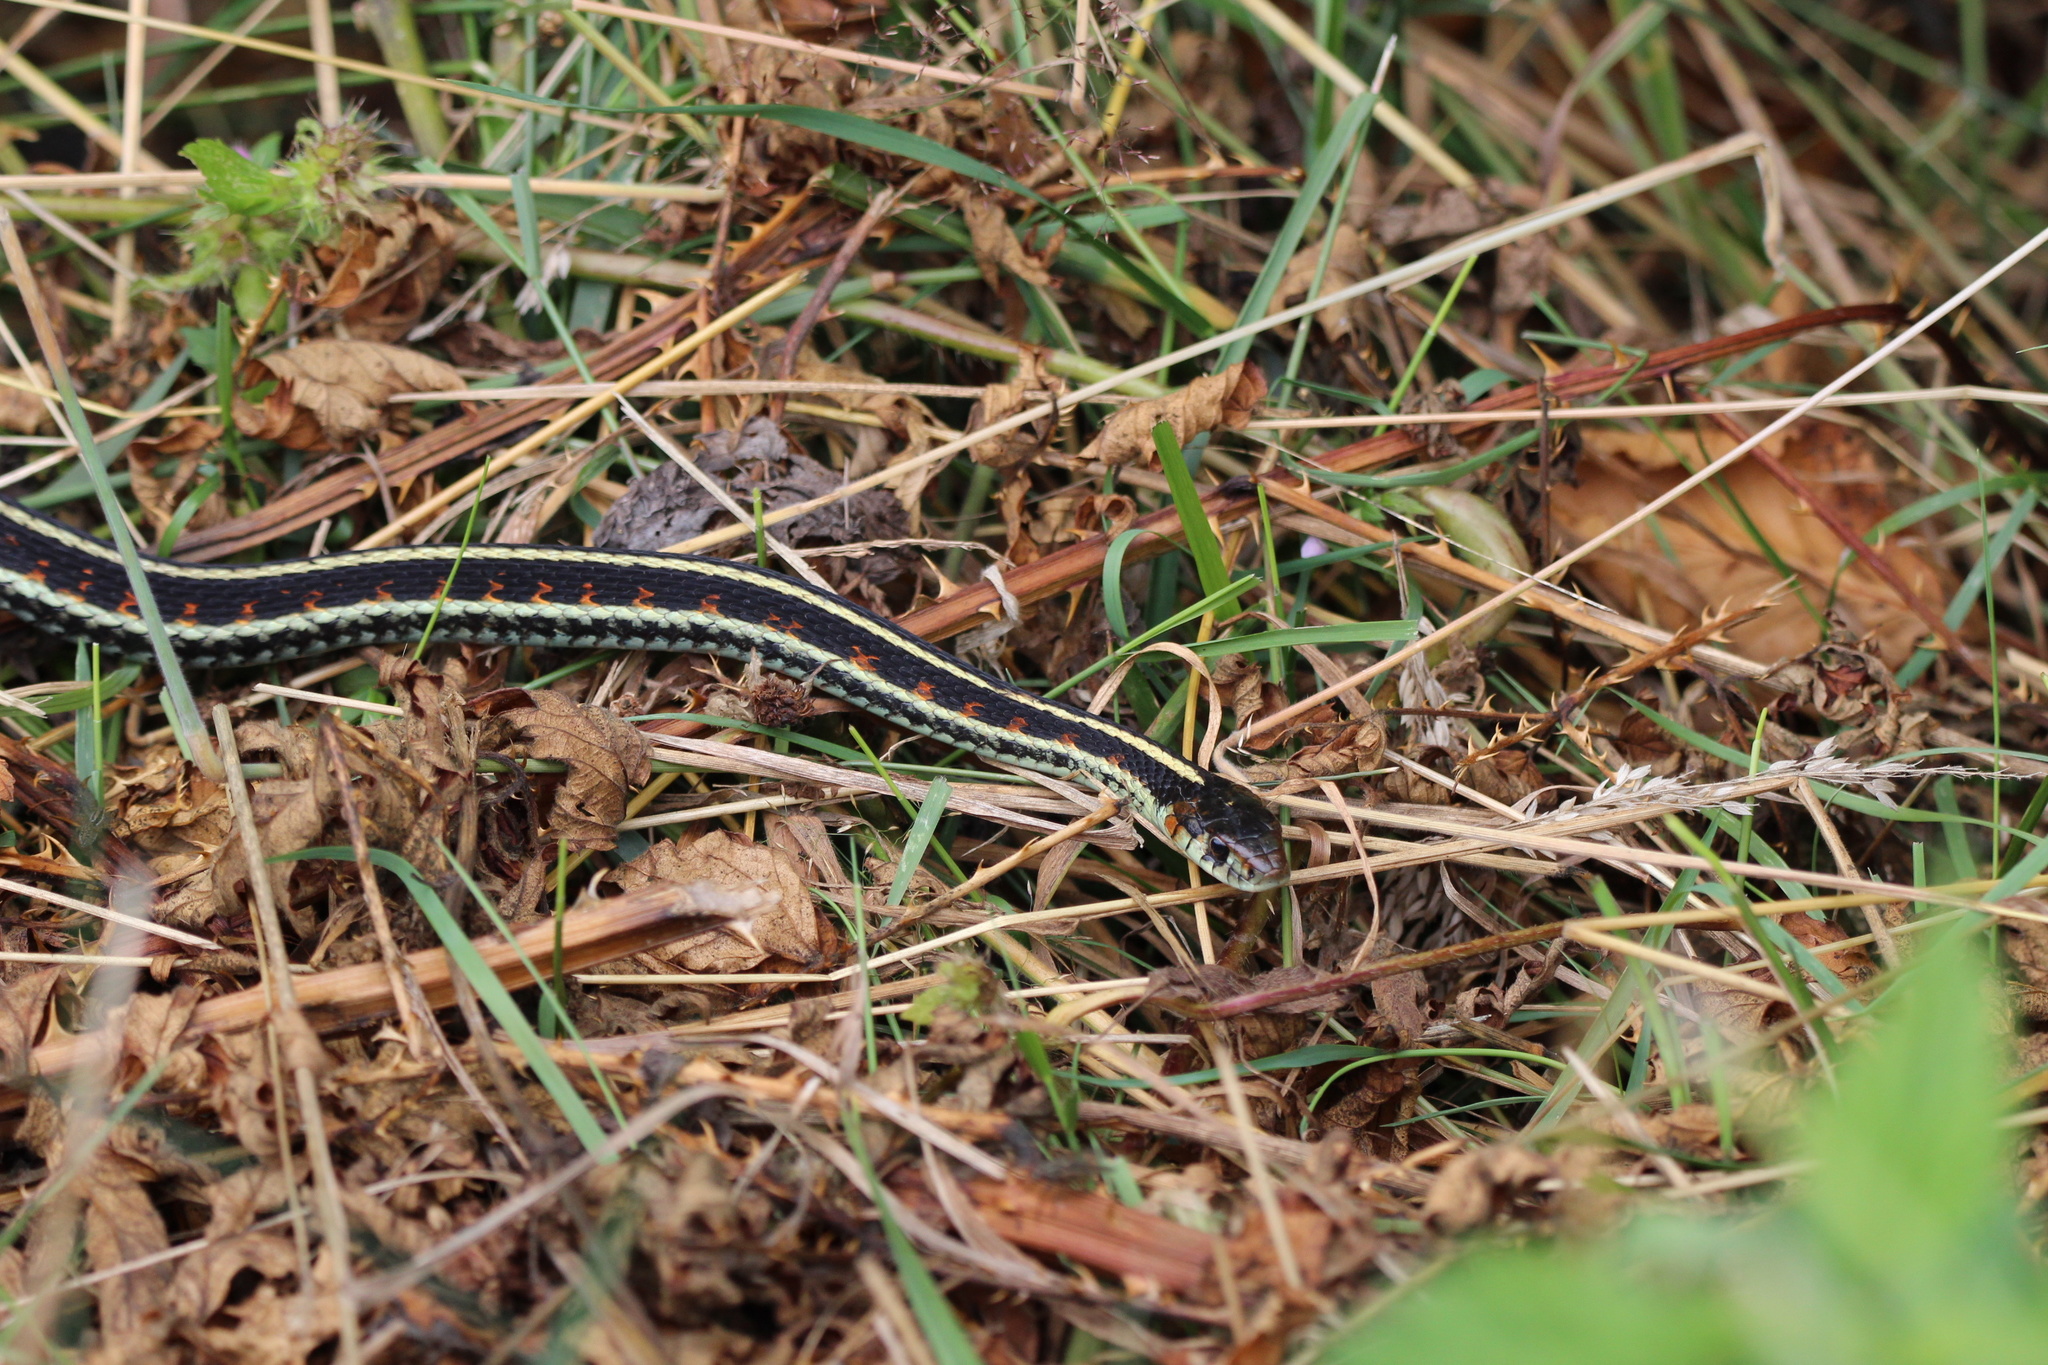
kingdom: Animalia
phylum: Chordata
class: Squamata
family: Colubridae
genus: Thamnophis
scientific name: Thamnophis sirtalis
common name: Common garter snake
